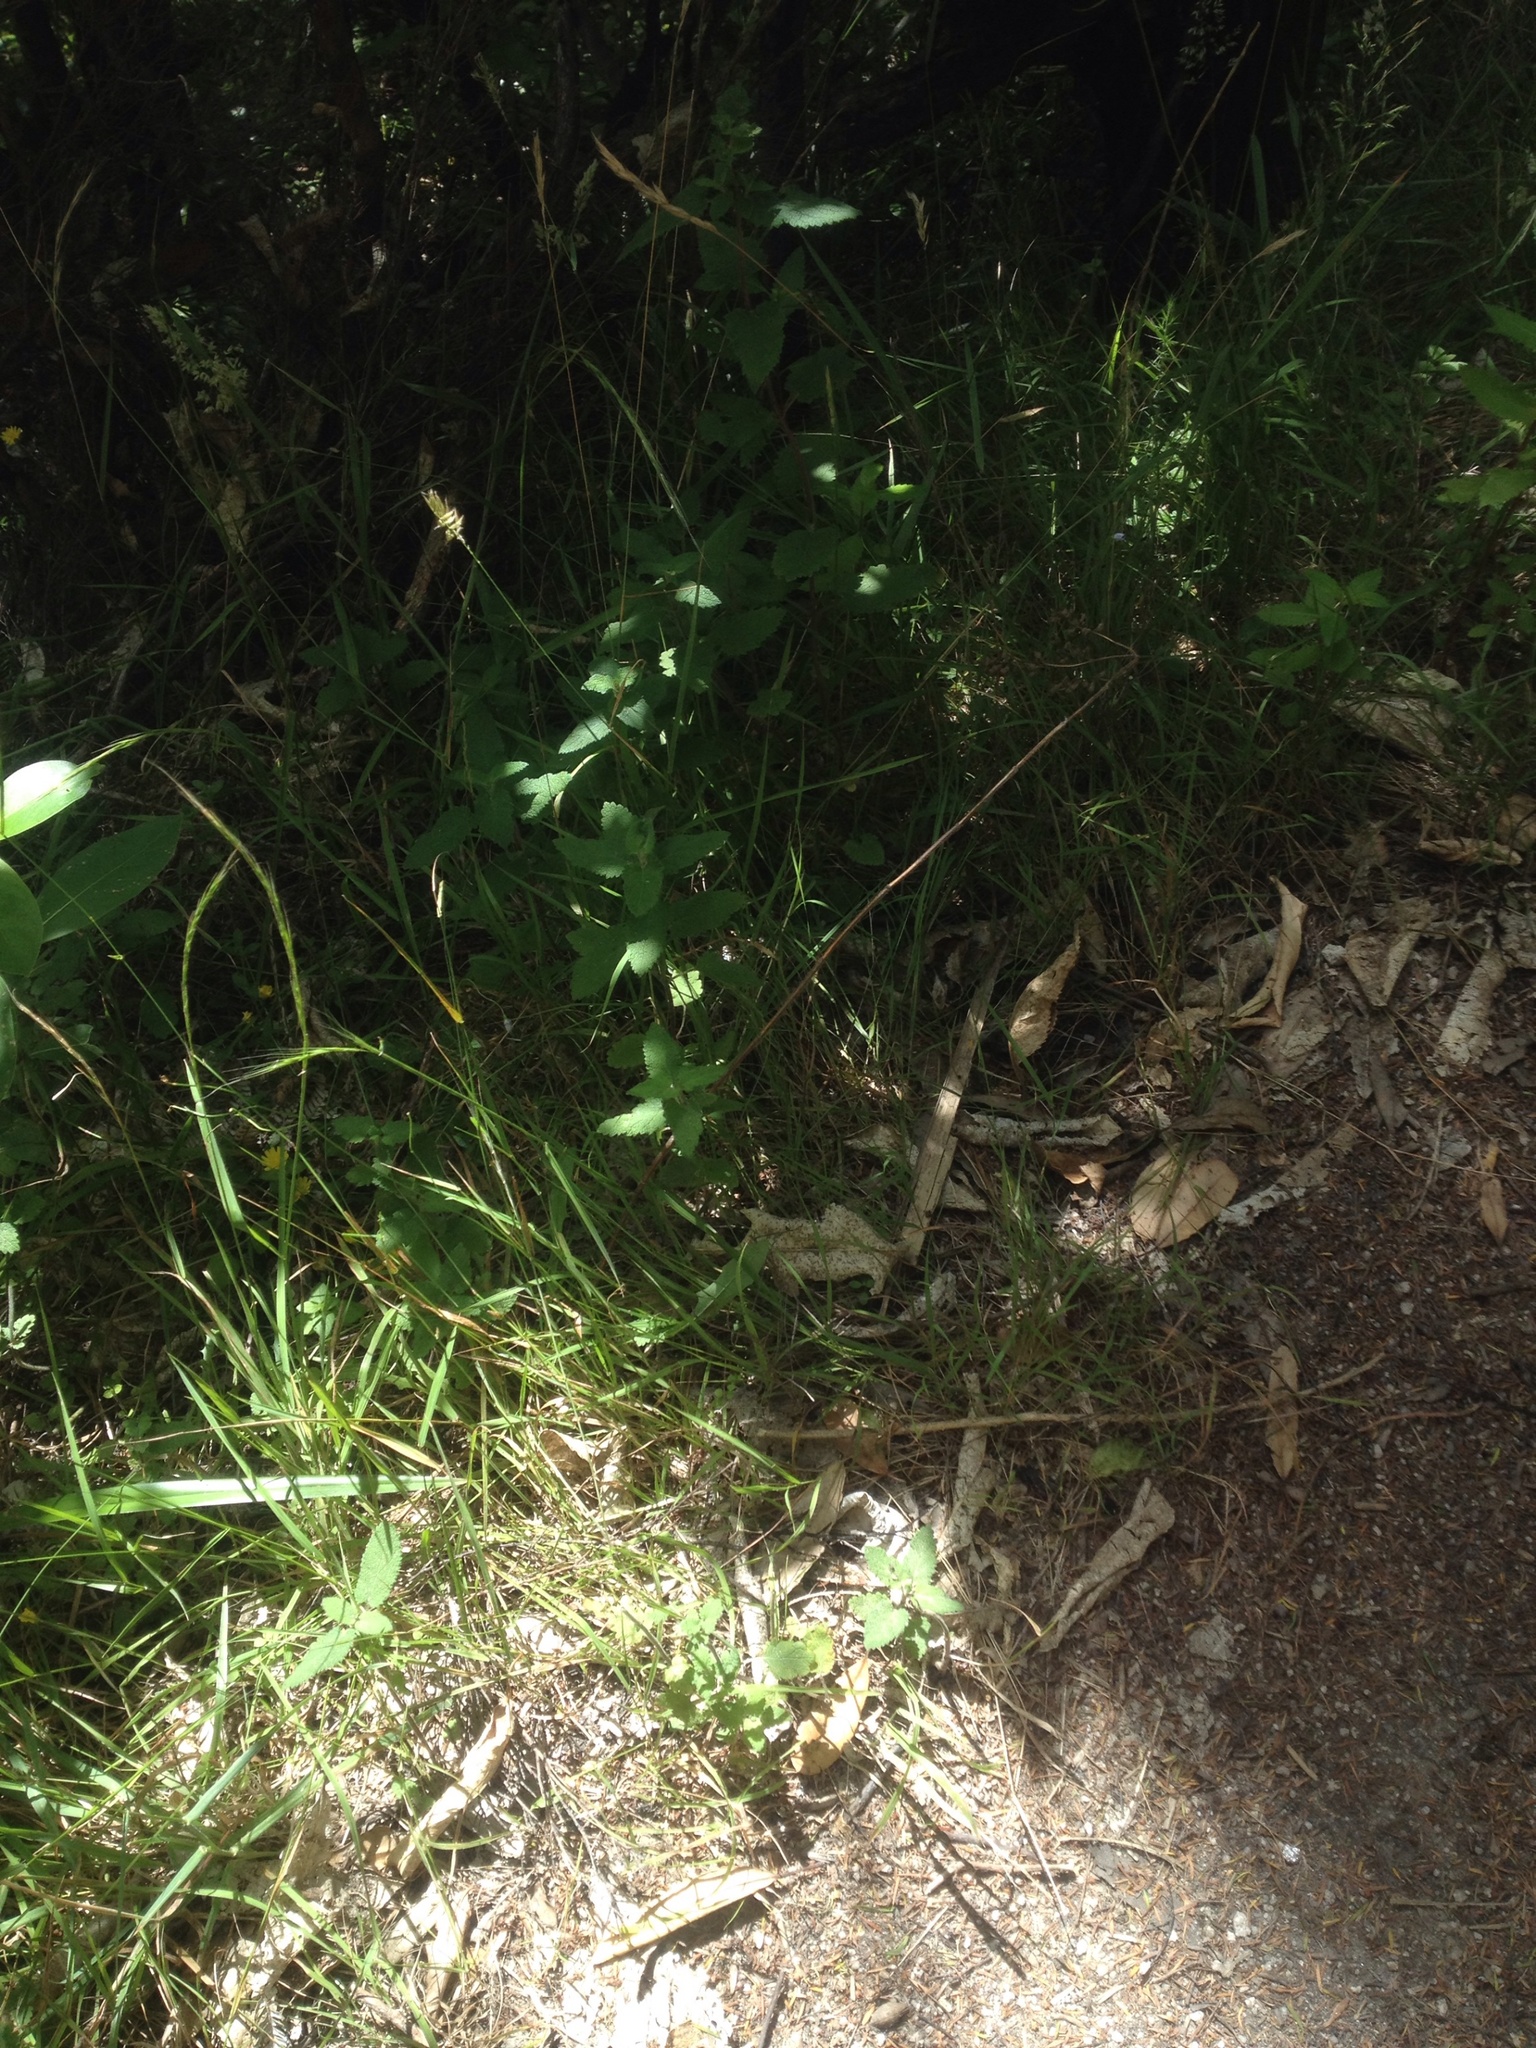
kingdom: Plantae
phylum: Tracheophyta
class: Magnoliopsida
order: Lamiales
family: Lamiaceae
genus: Teucrium
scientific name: Teucrium scorodonia
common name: Woodland germander
